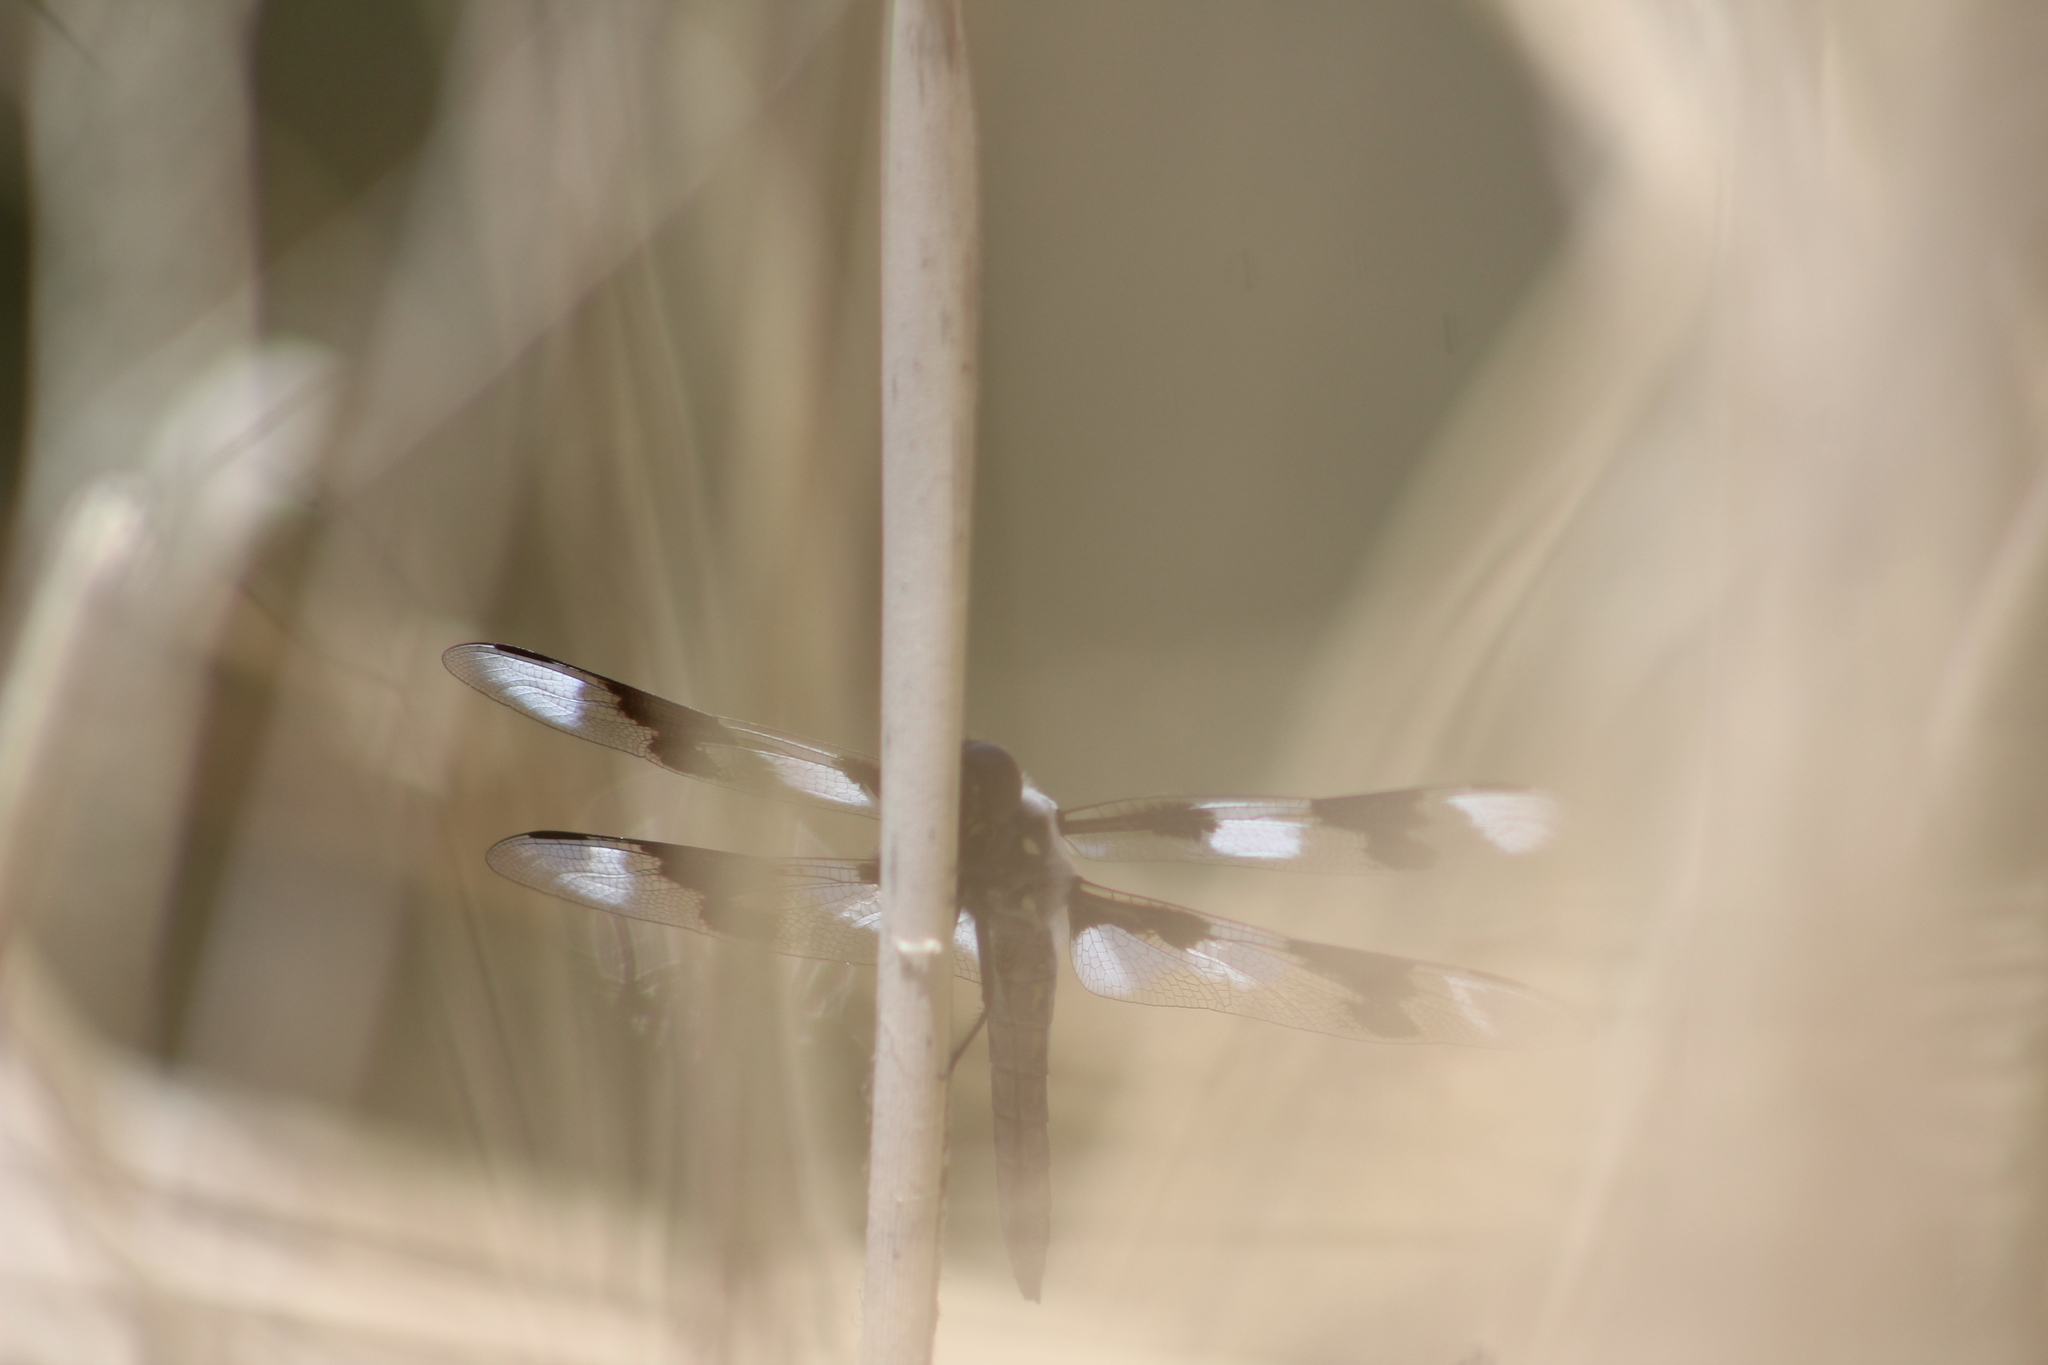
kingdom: Animalia
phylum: Arthropoda
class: Insecta
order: Odonata
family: Libellulidae
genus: Libellula
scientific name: Libellula forensis
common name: Eight-spotted skimmer
